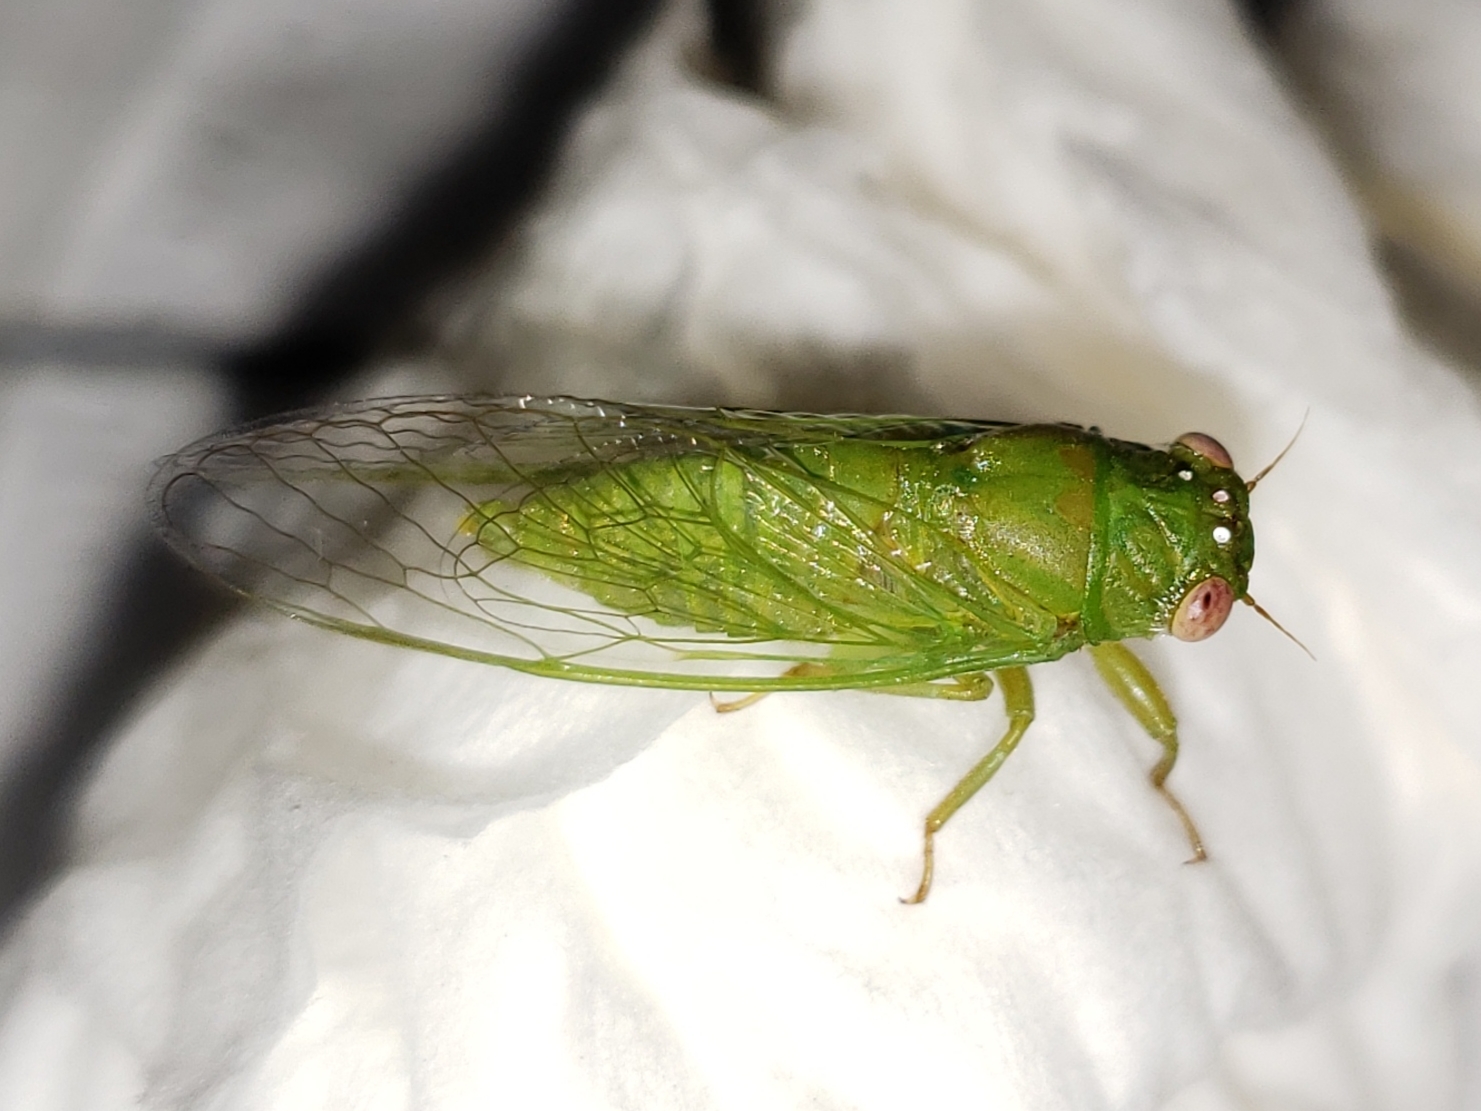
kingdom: Animalia
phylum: Arthropoda
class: Insecta
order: Hemiptera
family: Cicadidae
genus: Cicadettana
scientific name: Cicadettana calliope
